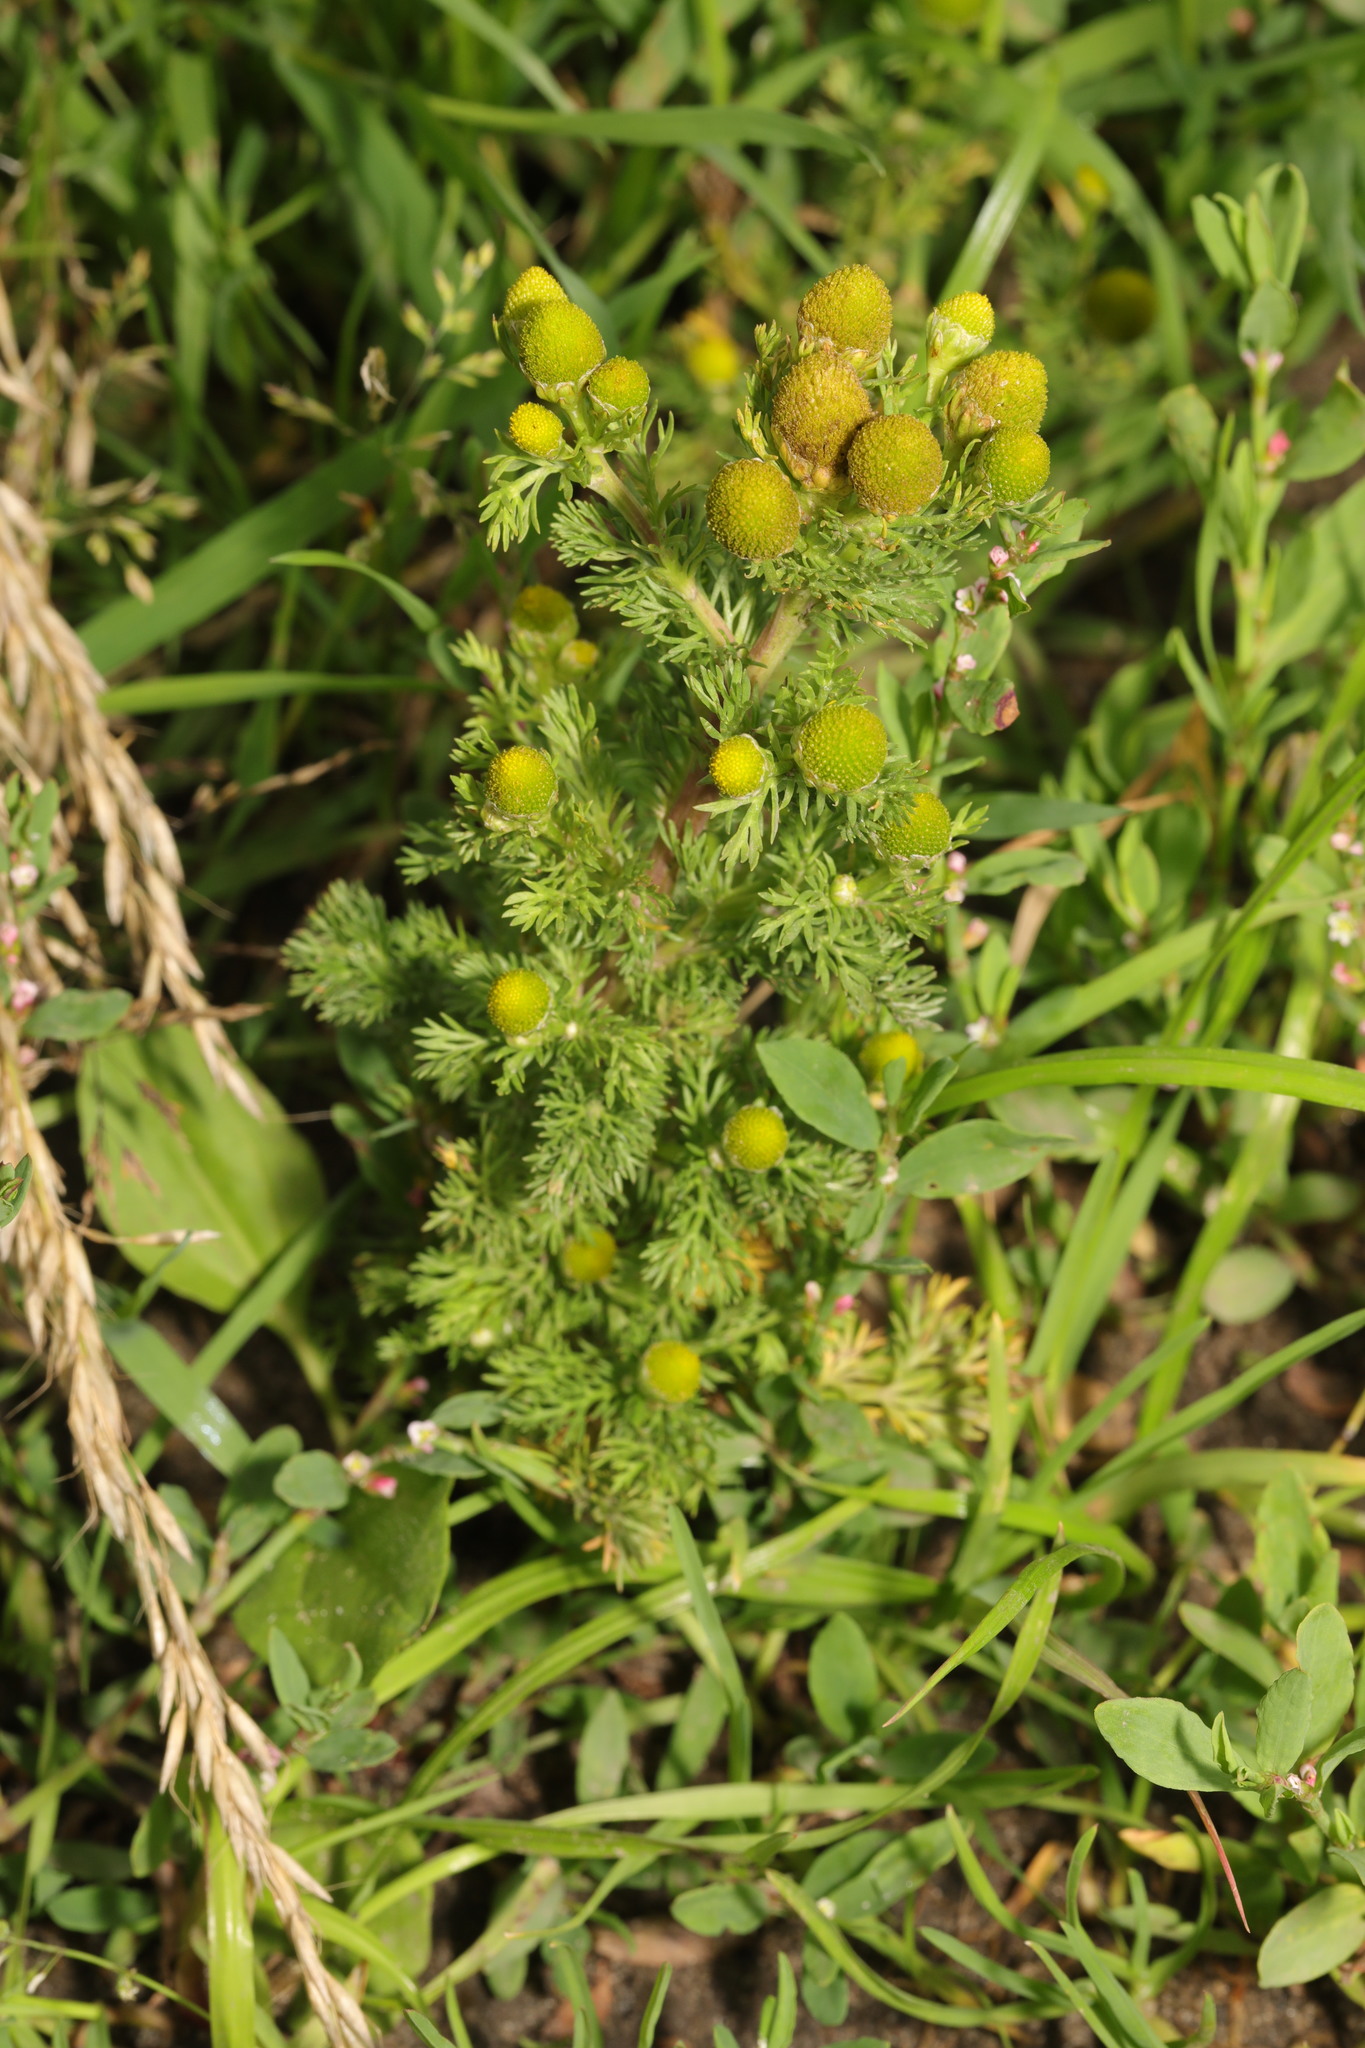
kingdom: Plantae
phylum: Tracheophyta
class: Magnoliopsida
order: Asterales
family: Asteraceae
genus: Matricaria
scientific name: Matricaria discoidea
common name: Disc mayweed
